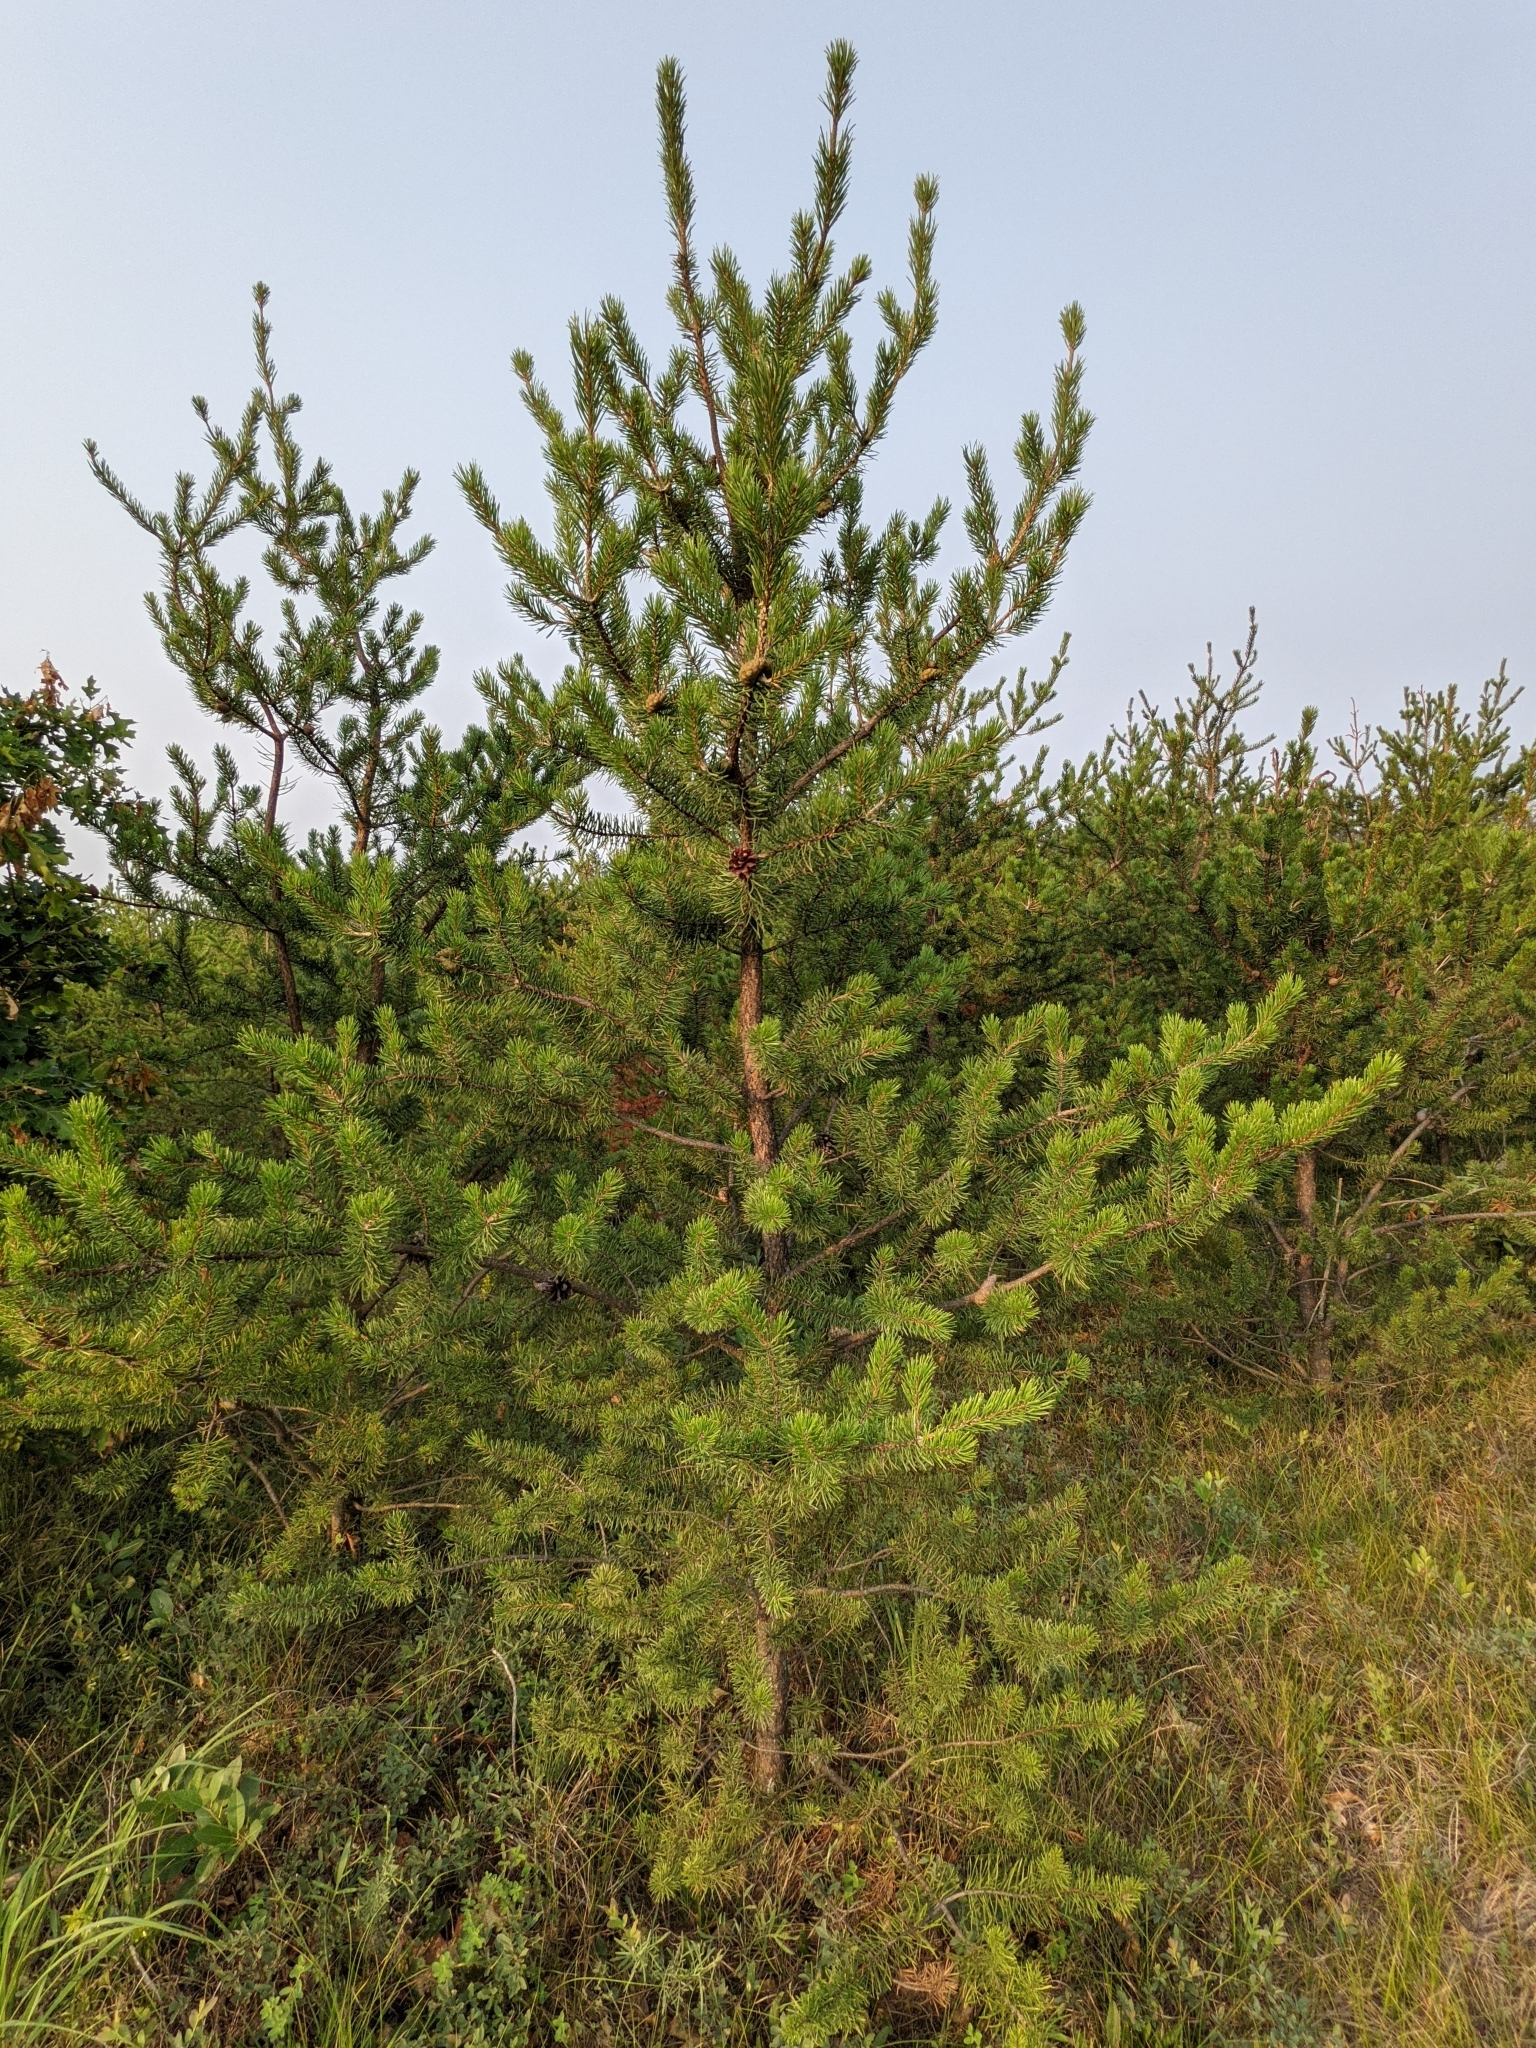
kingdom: Plantae
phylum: Tracheophyta
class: Pinopsida
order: Pinales
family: Pinaceae
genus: Pinus
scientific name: Pinus banksiana
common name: Jack pine
